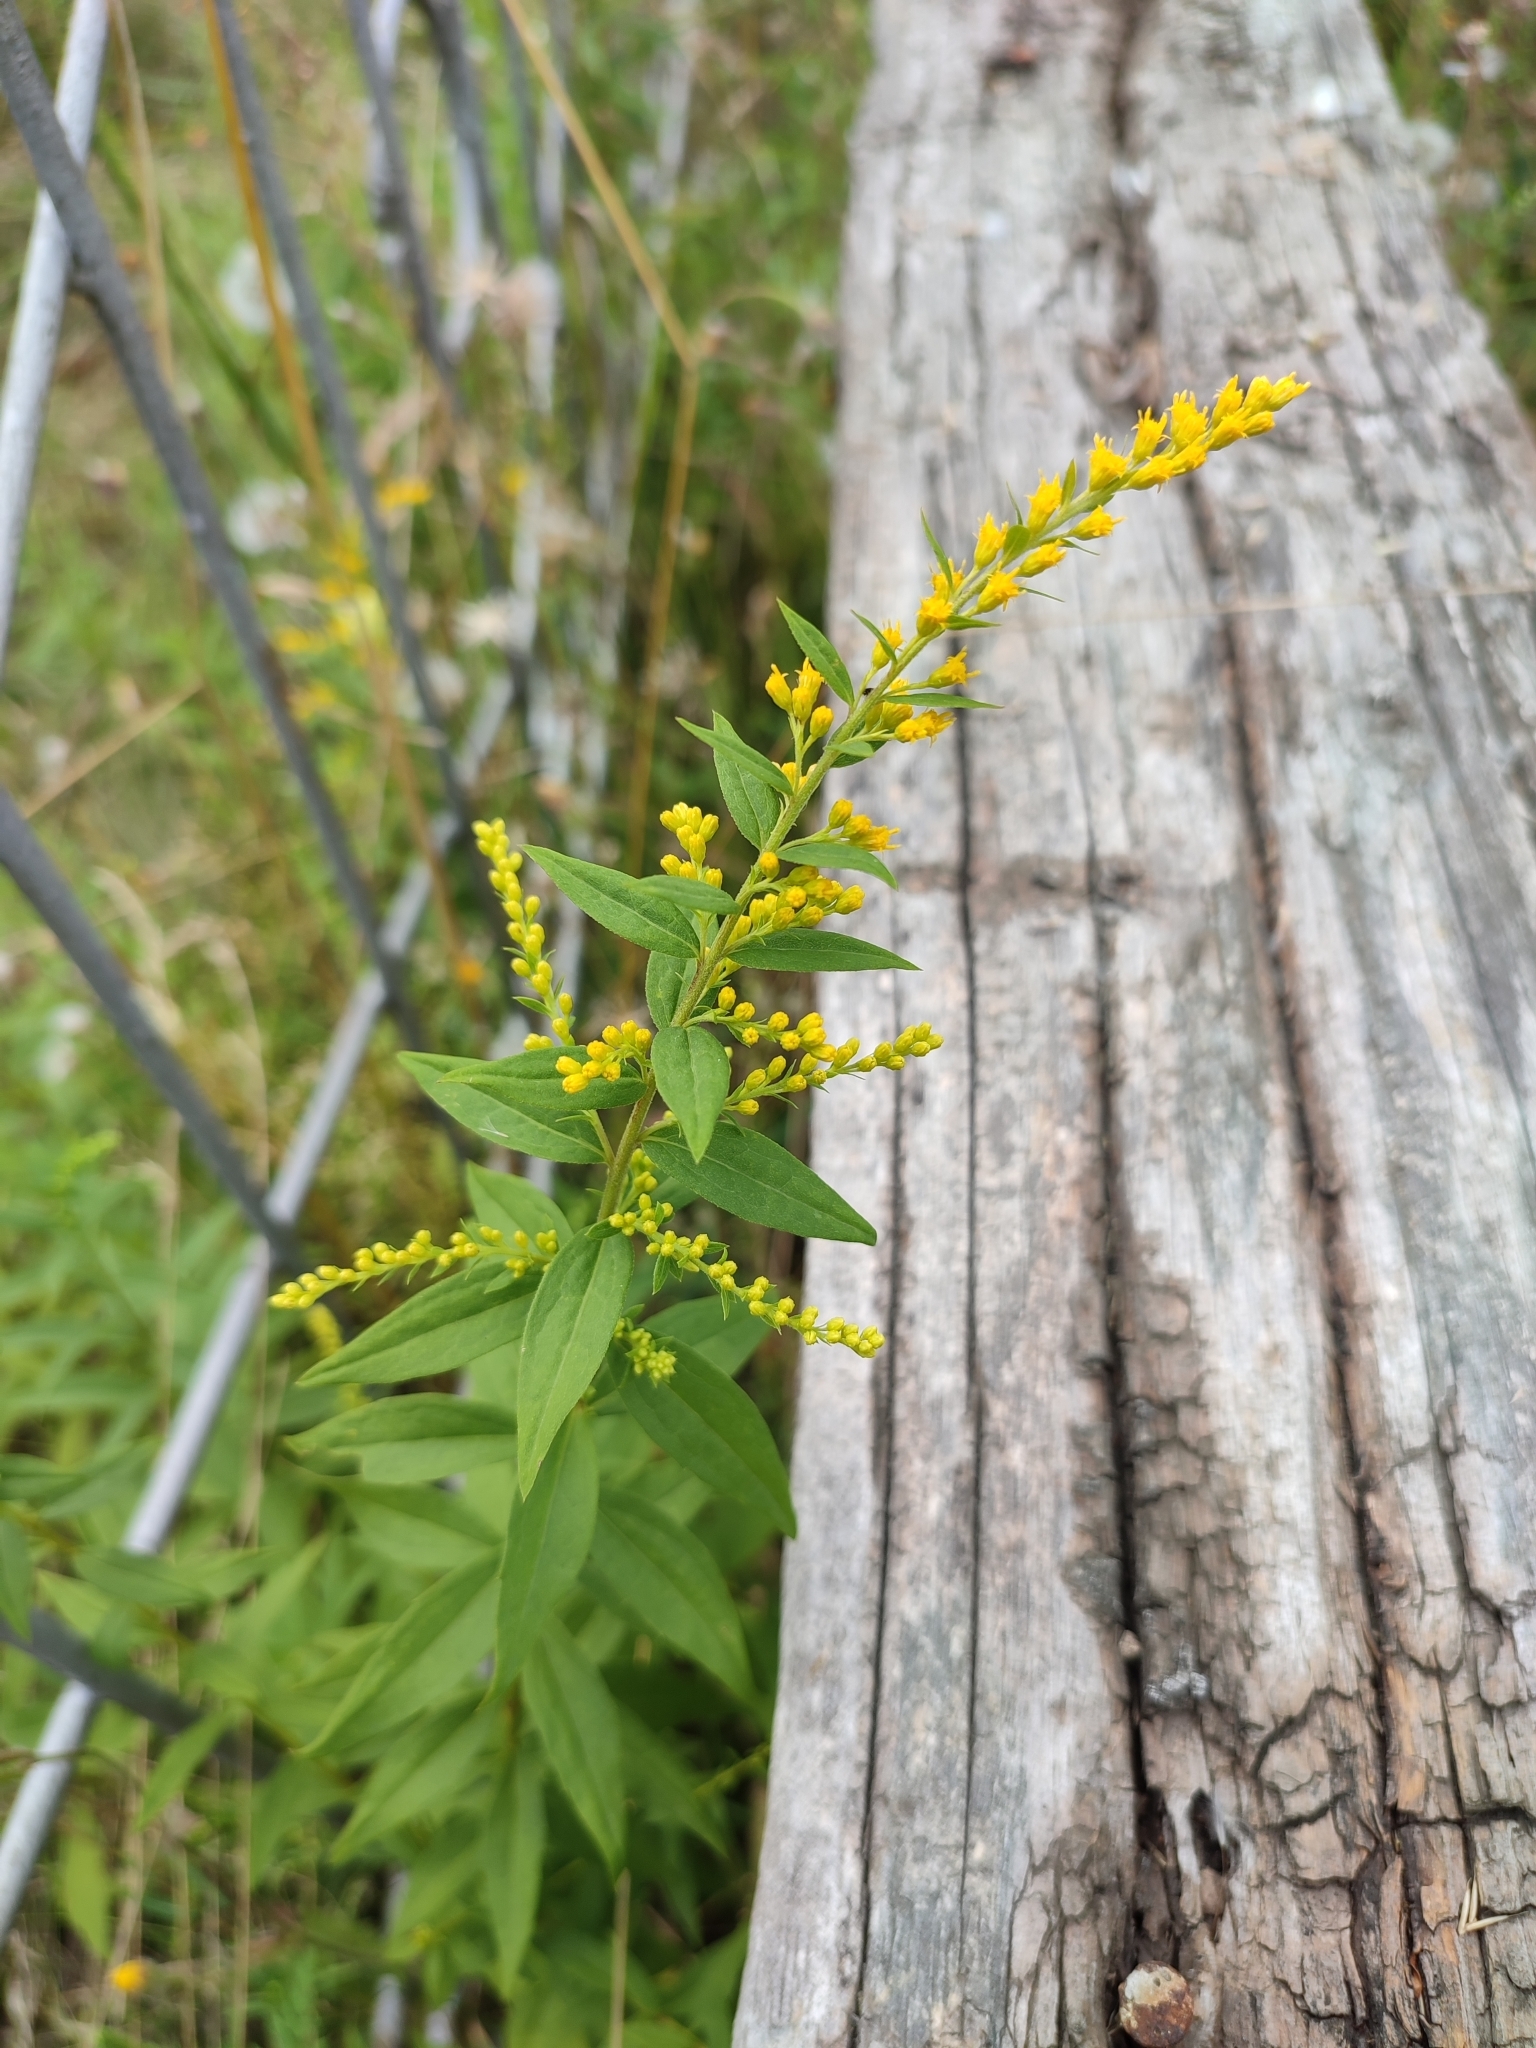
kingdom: Plantae
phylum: Tracheophyta
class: Magnoliopsida
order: Asterales
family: Asteraceae
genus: Solidago
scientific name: Solidago canadensis
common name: Canada goldenrod
